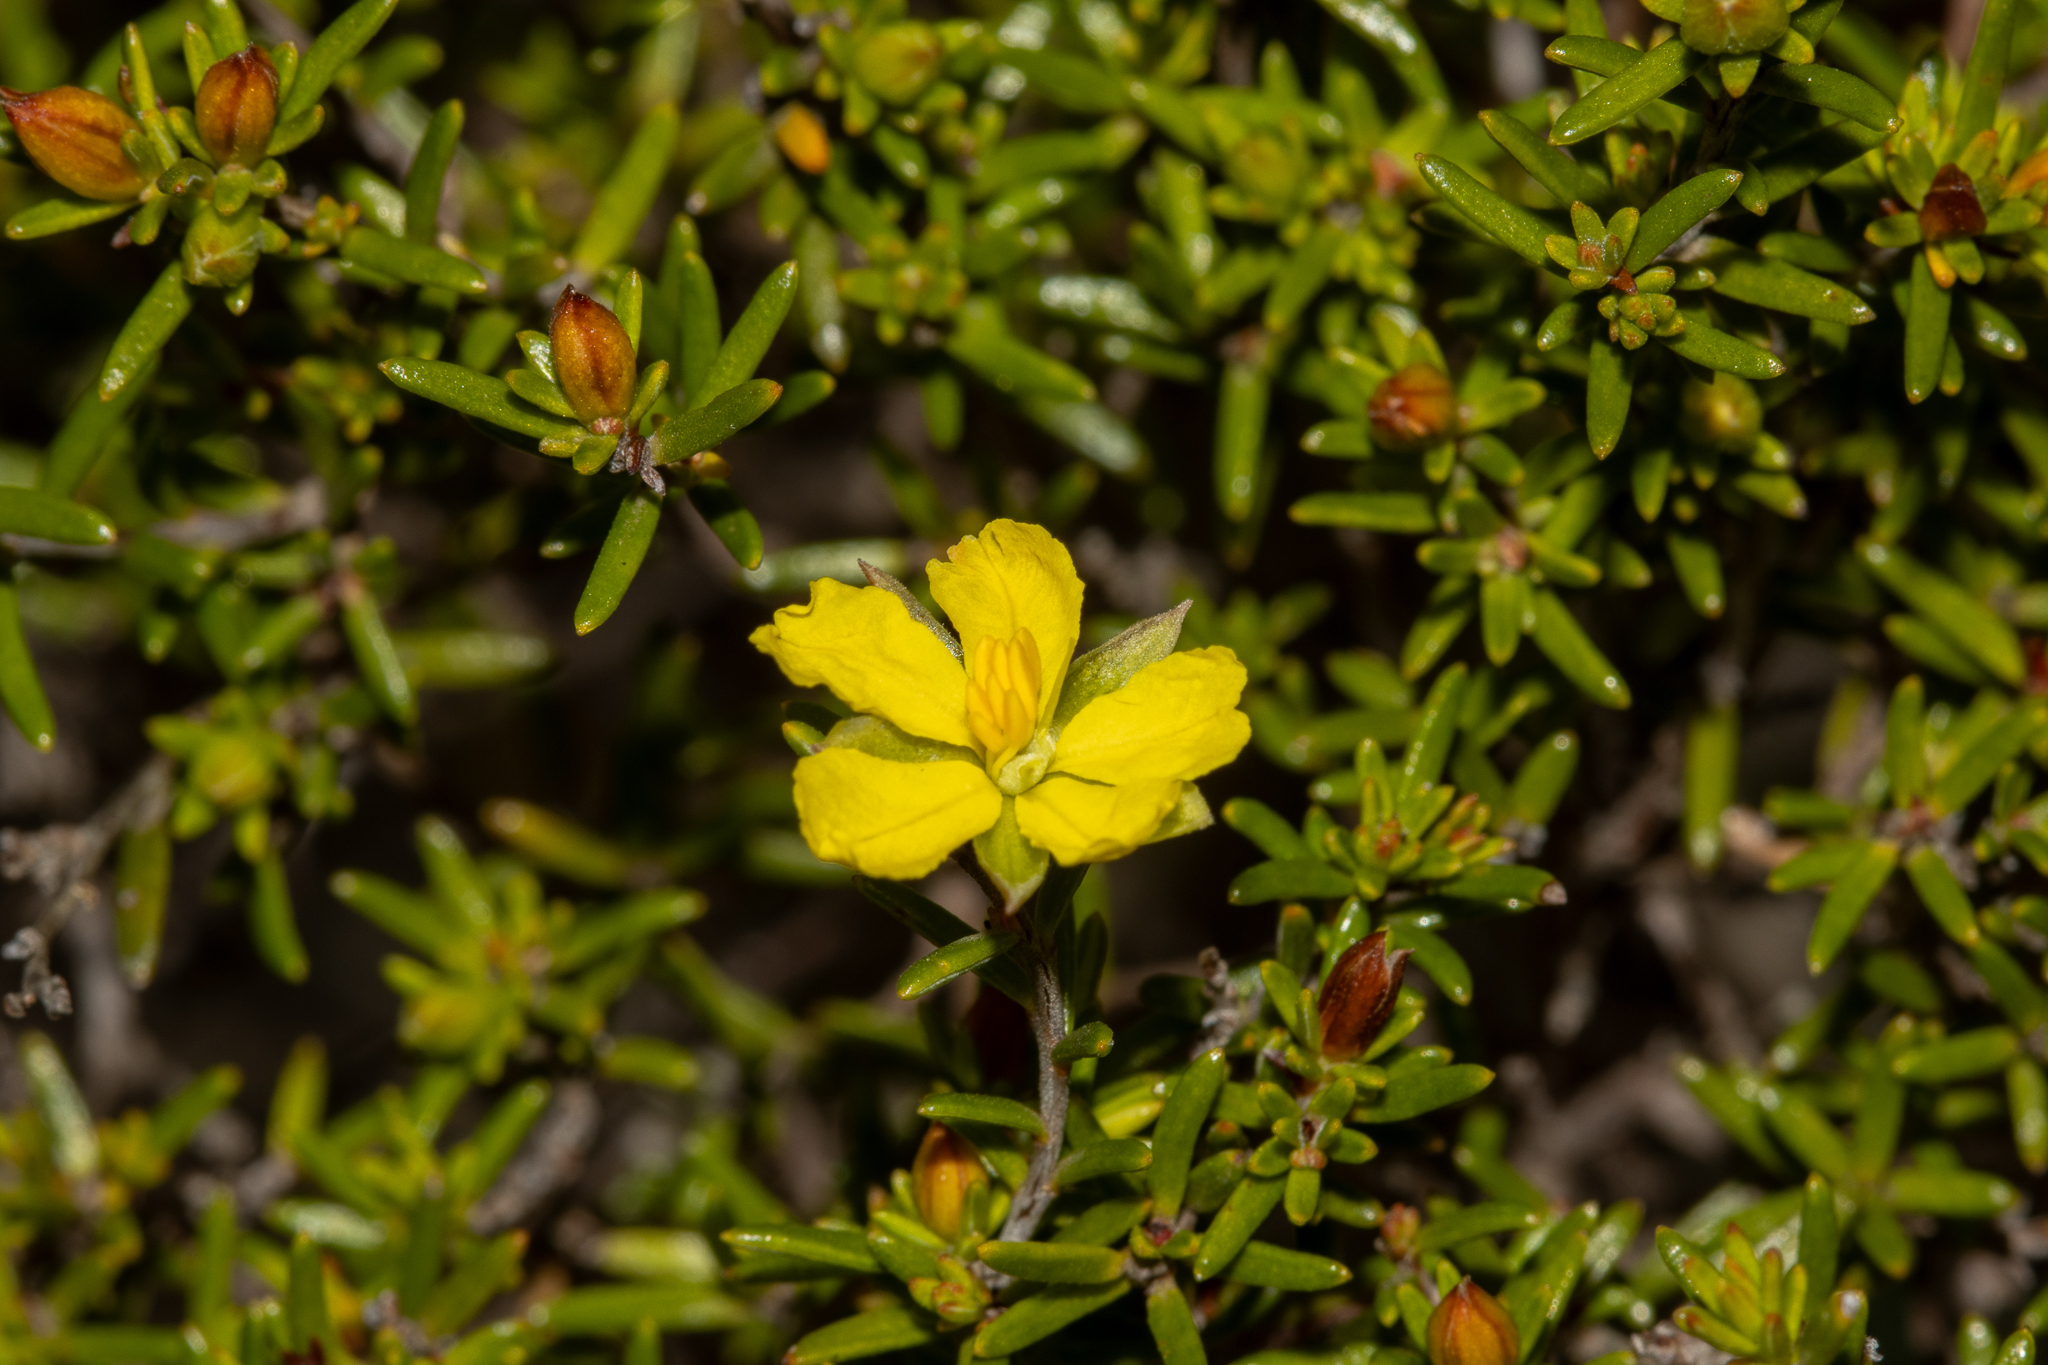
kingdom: Plantae
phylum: Tracheophyta
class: Magnoliopsida
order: Dilleniales
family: Dilleniaceae
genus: Hibbertia
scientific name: Hibbertia devitata
